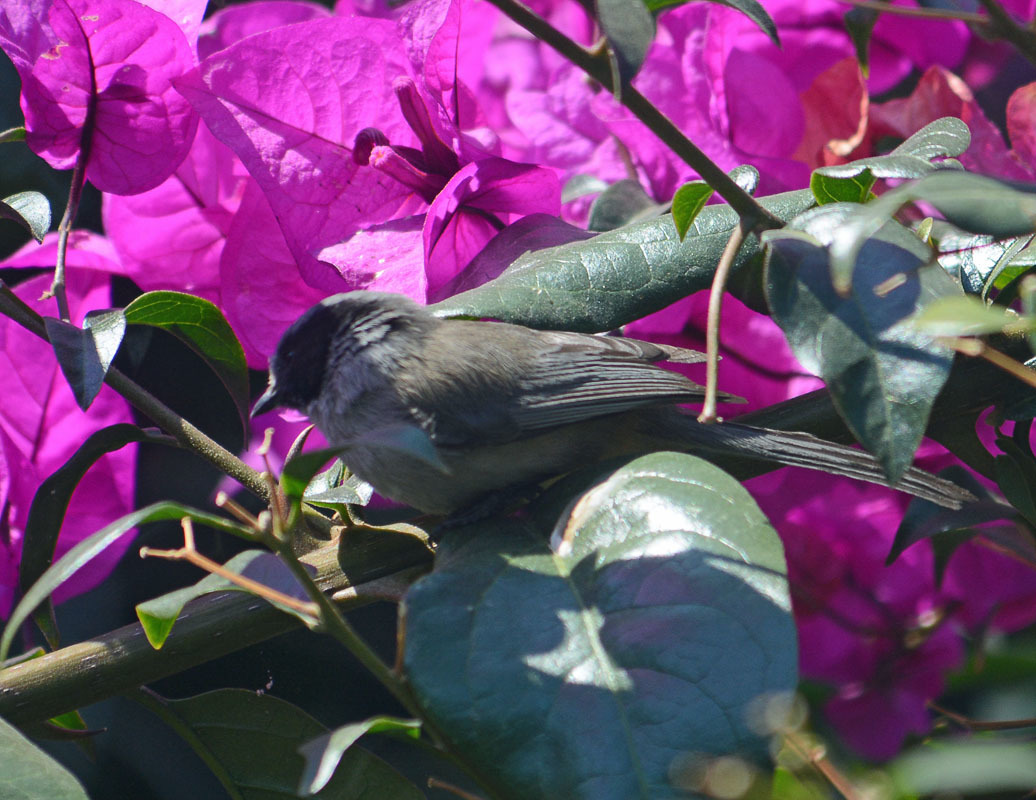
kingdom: Animalia
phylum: Chordata
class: Aves
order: Passeriformes
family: Aegithalidae
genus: Psaltriparus
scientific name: Psaltriparus minimus
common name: American bushtit
